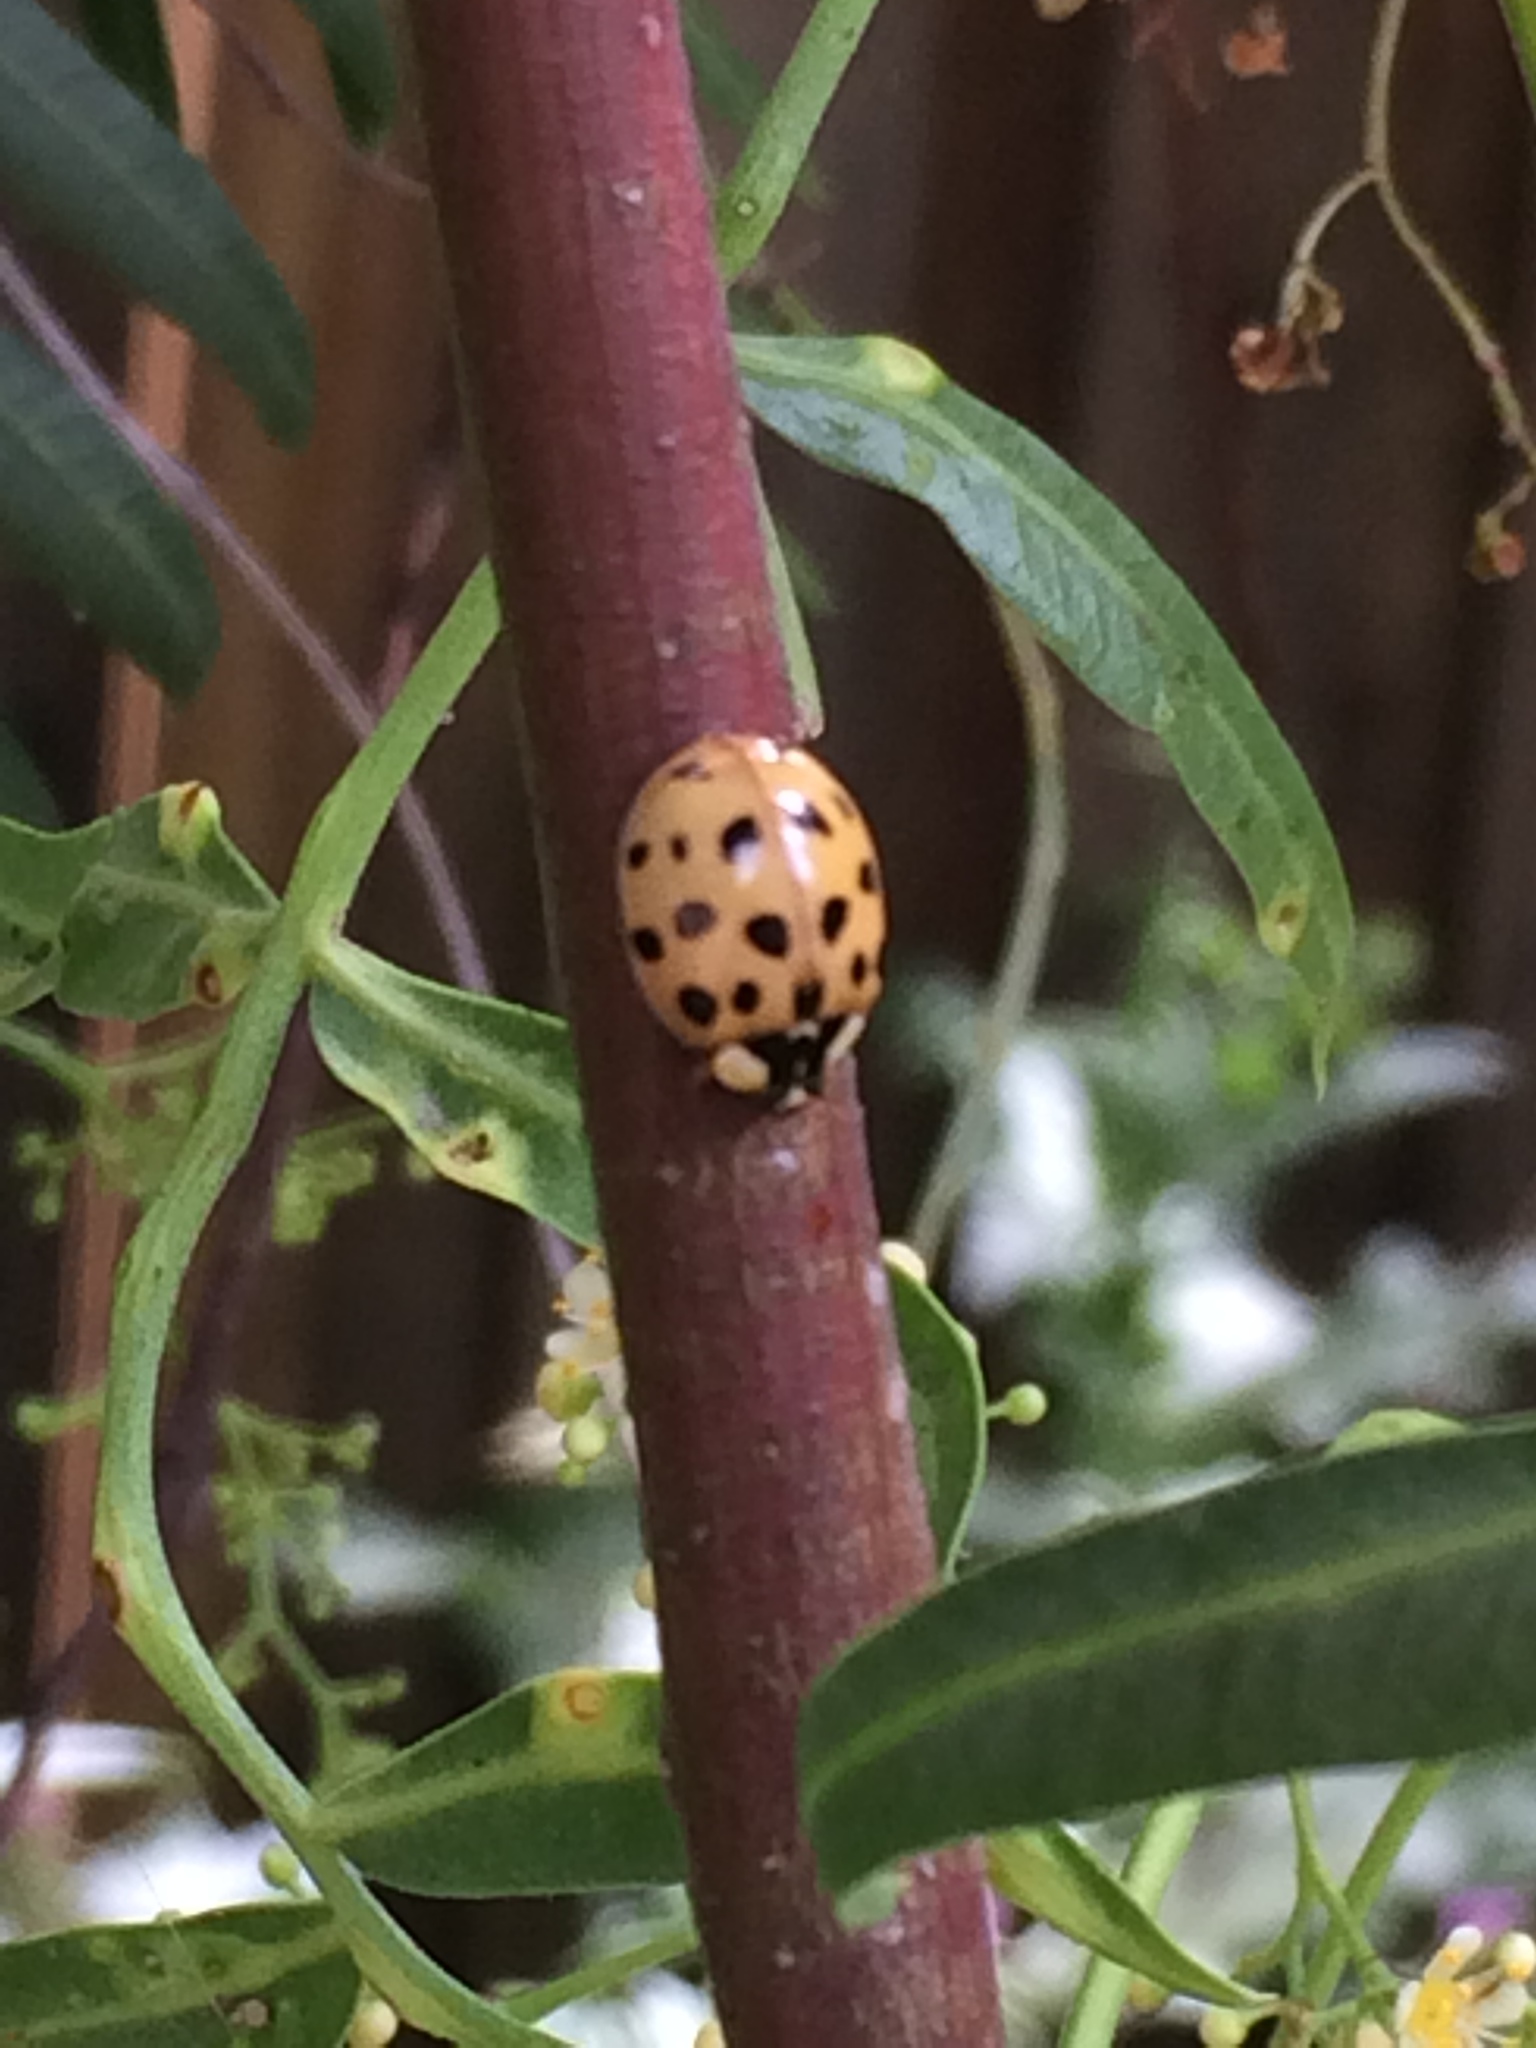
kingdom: Animalia
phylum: Arthropoda
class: Insecta
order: Coleoptera
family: Coccinellidae
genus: Harmonia
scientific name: Harmonia axyridis
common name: Harlequin ladybird
